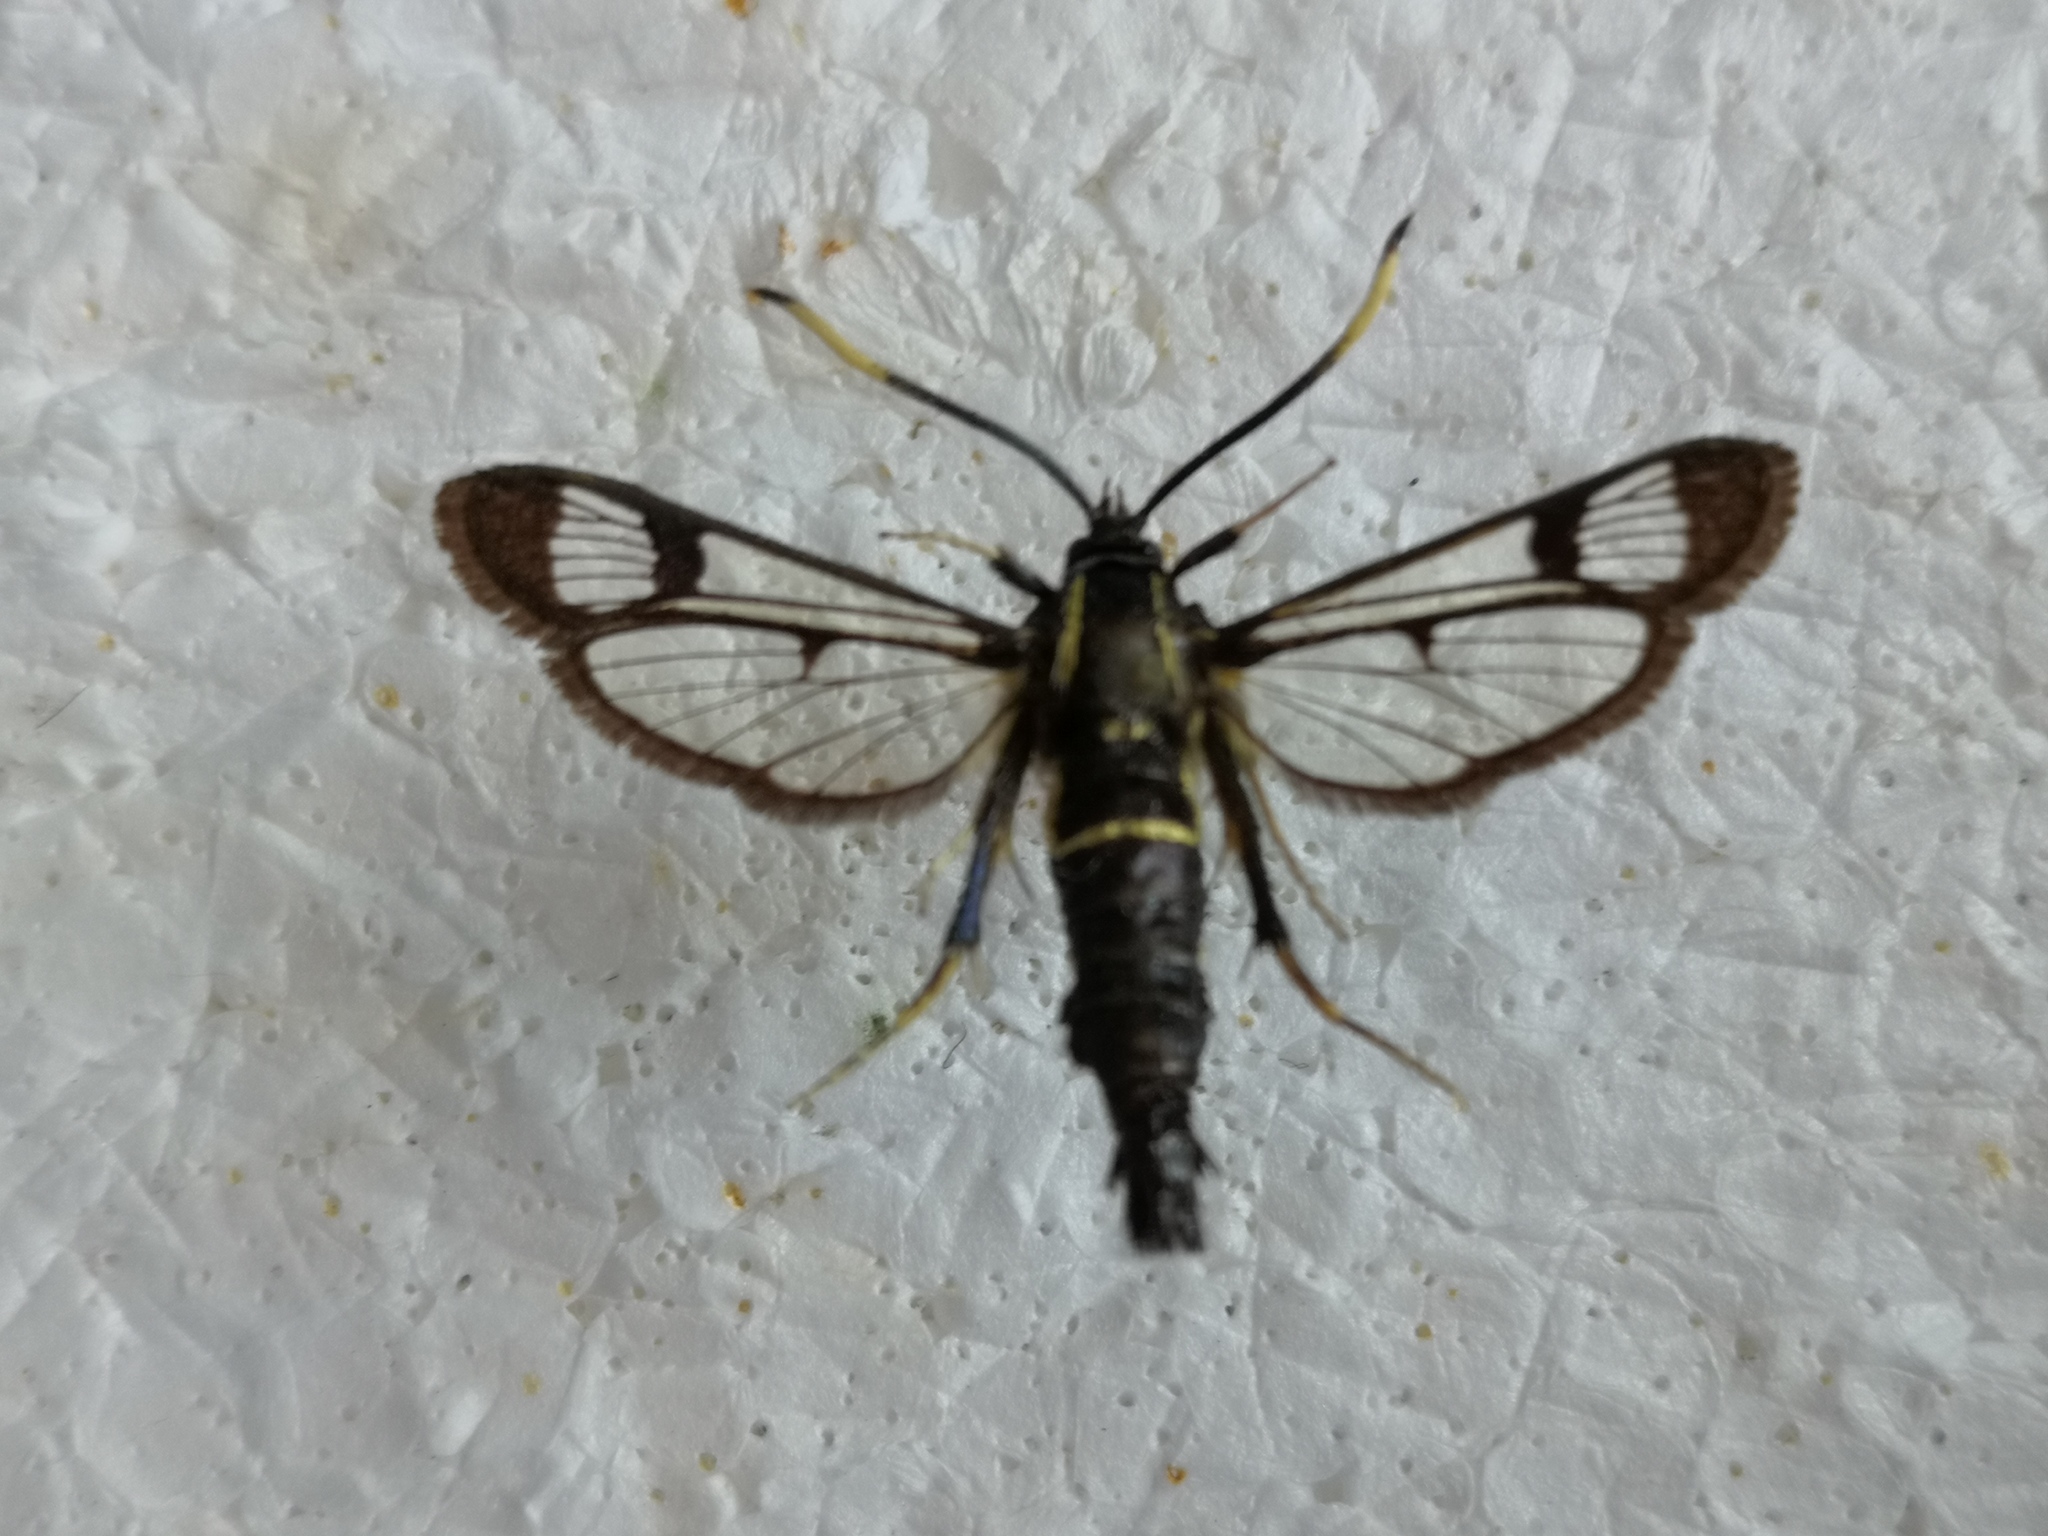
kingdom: Animalia
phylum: Arthropoda
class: Insecta
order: Lepidoptera
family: Sesiidae
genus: Synanthedon
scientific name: Synanthedon spheciformis
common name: White-barred clearwing
